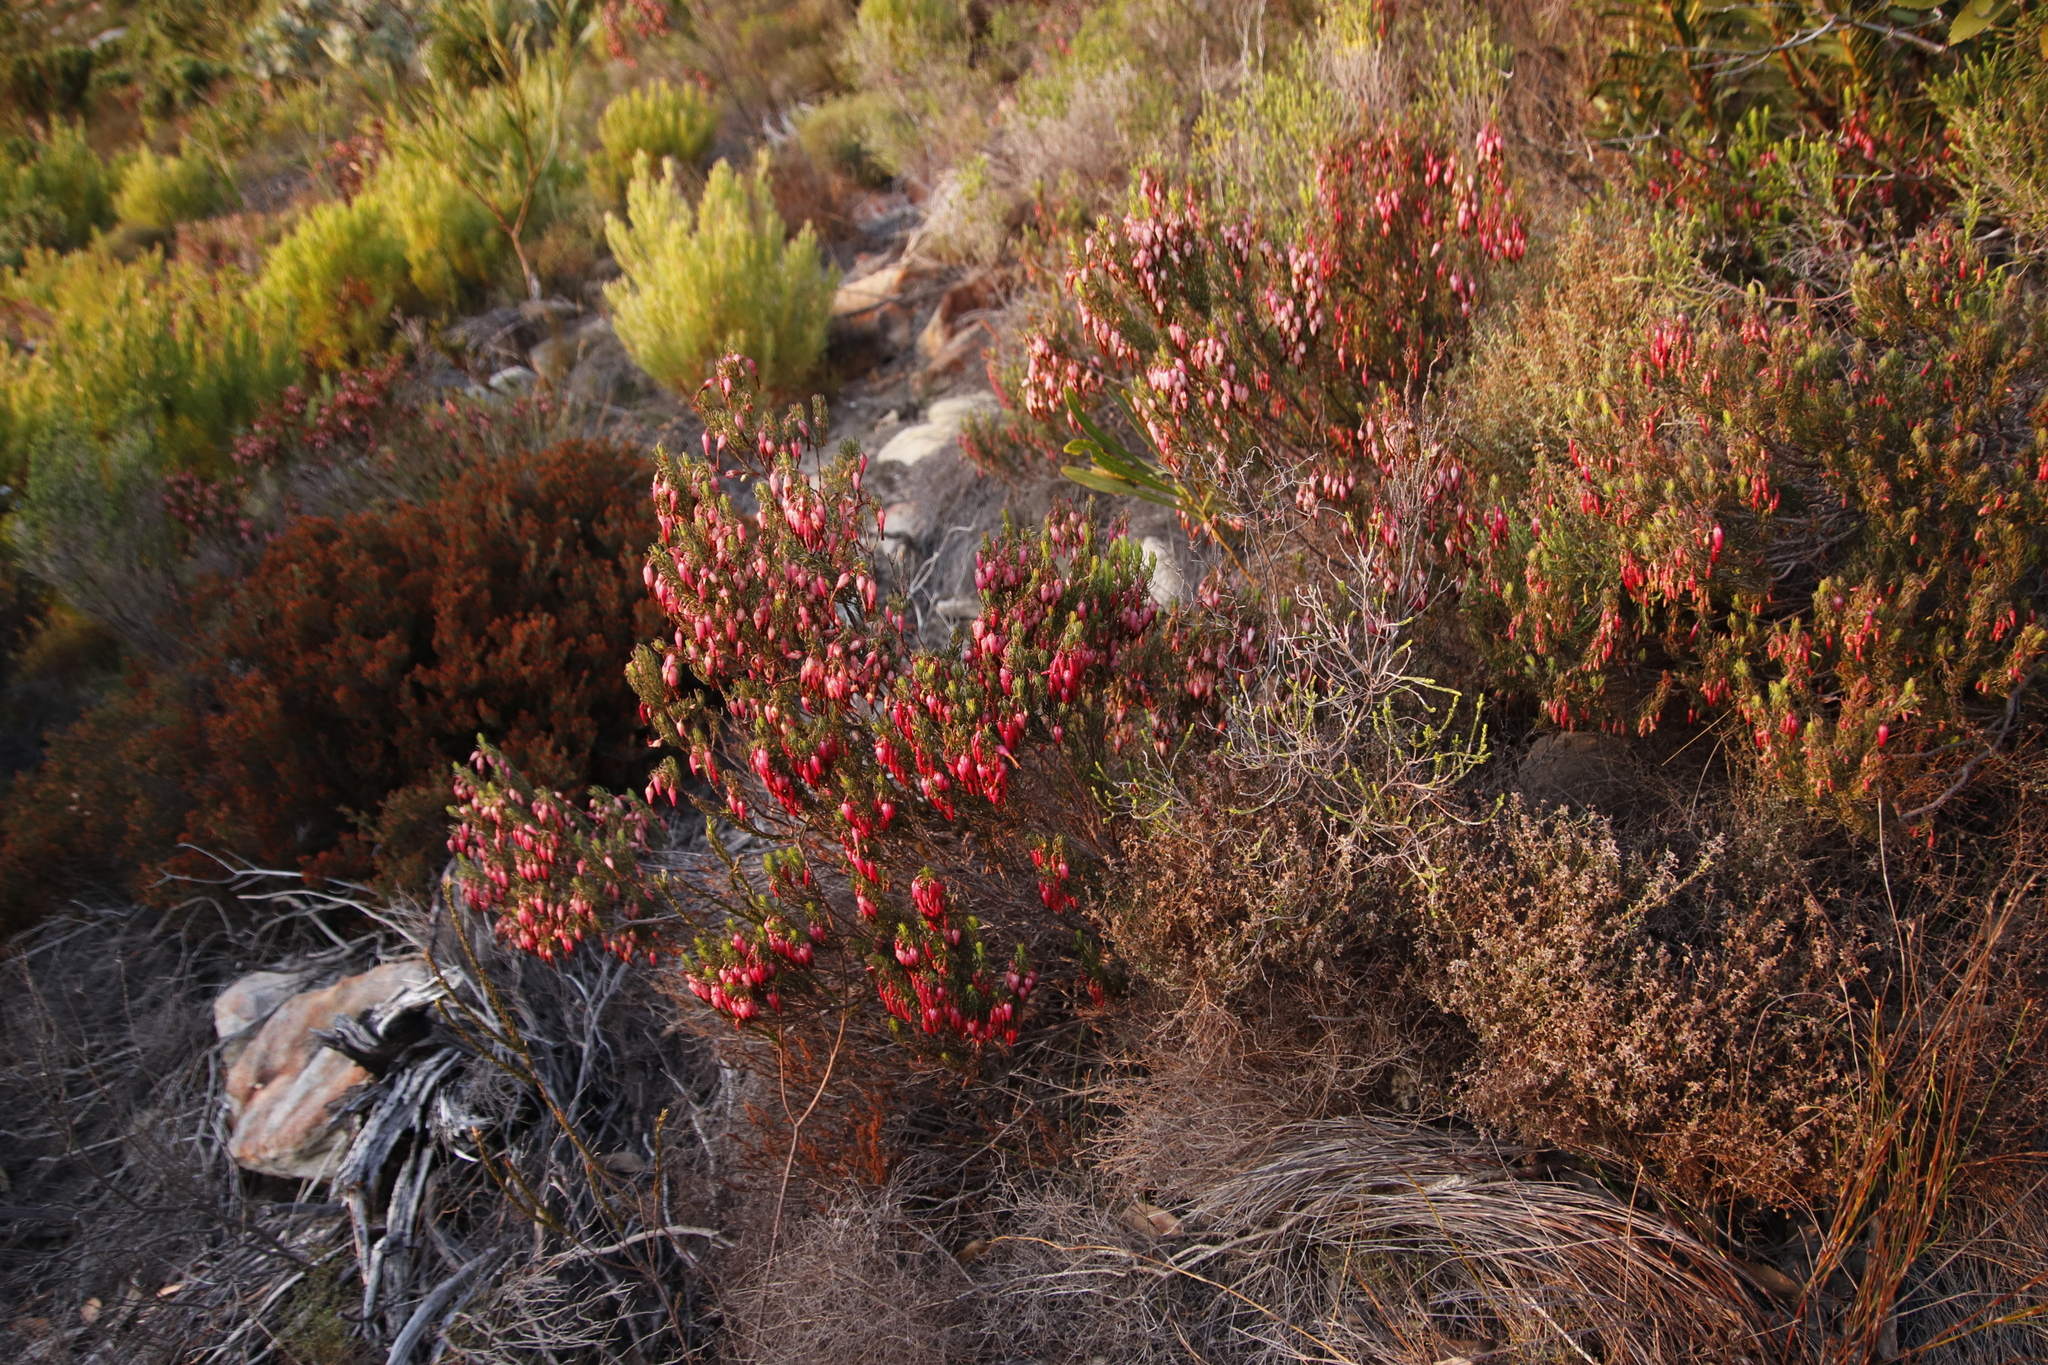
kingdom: Plantae
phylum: Tracheophyta
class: Magnoliopsida
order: Ericales
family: Ericaceae
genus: Erica
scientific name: Erica plukenetii
